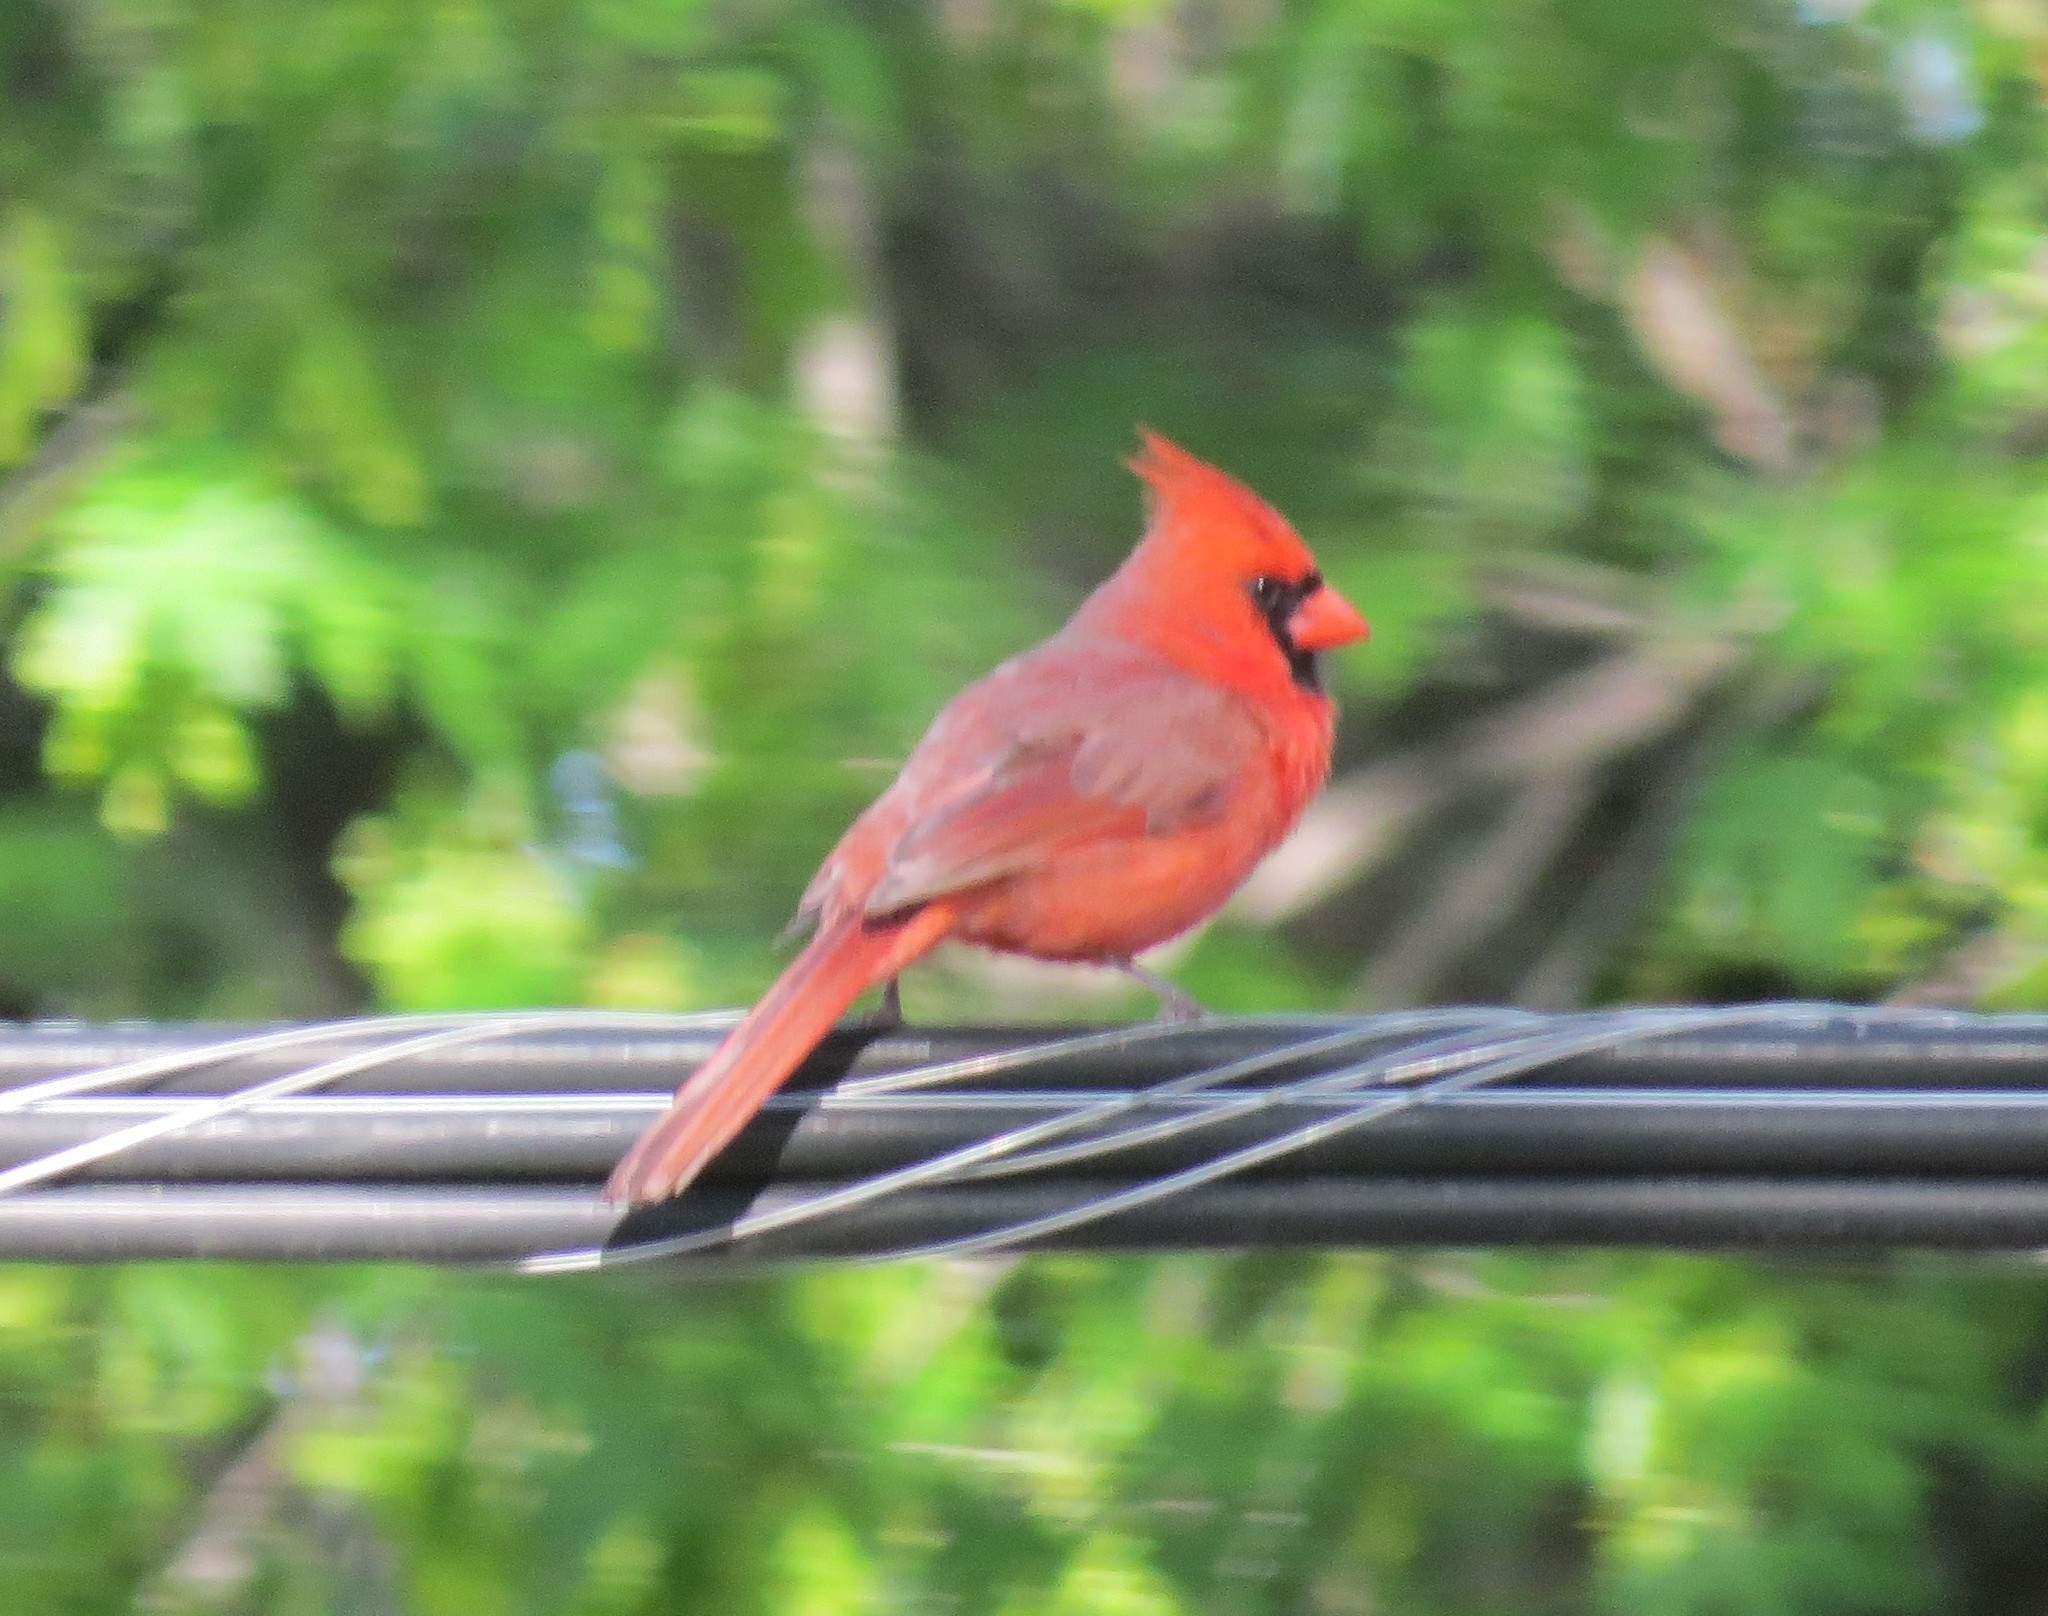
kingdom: Animalia
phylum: Chordata
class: Aves
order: Passeriformes
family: Cardinalidae
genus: Cardinalis
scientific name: Cardinalis cardinalis
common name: Northern cardinal
